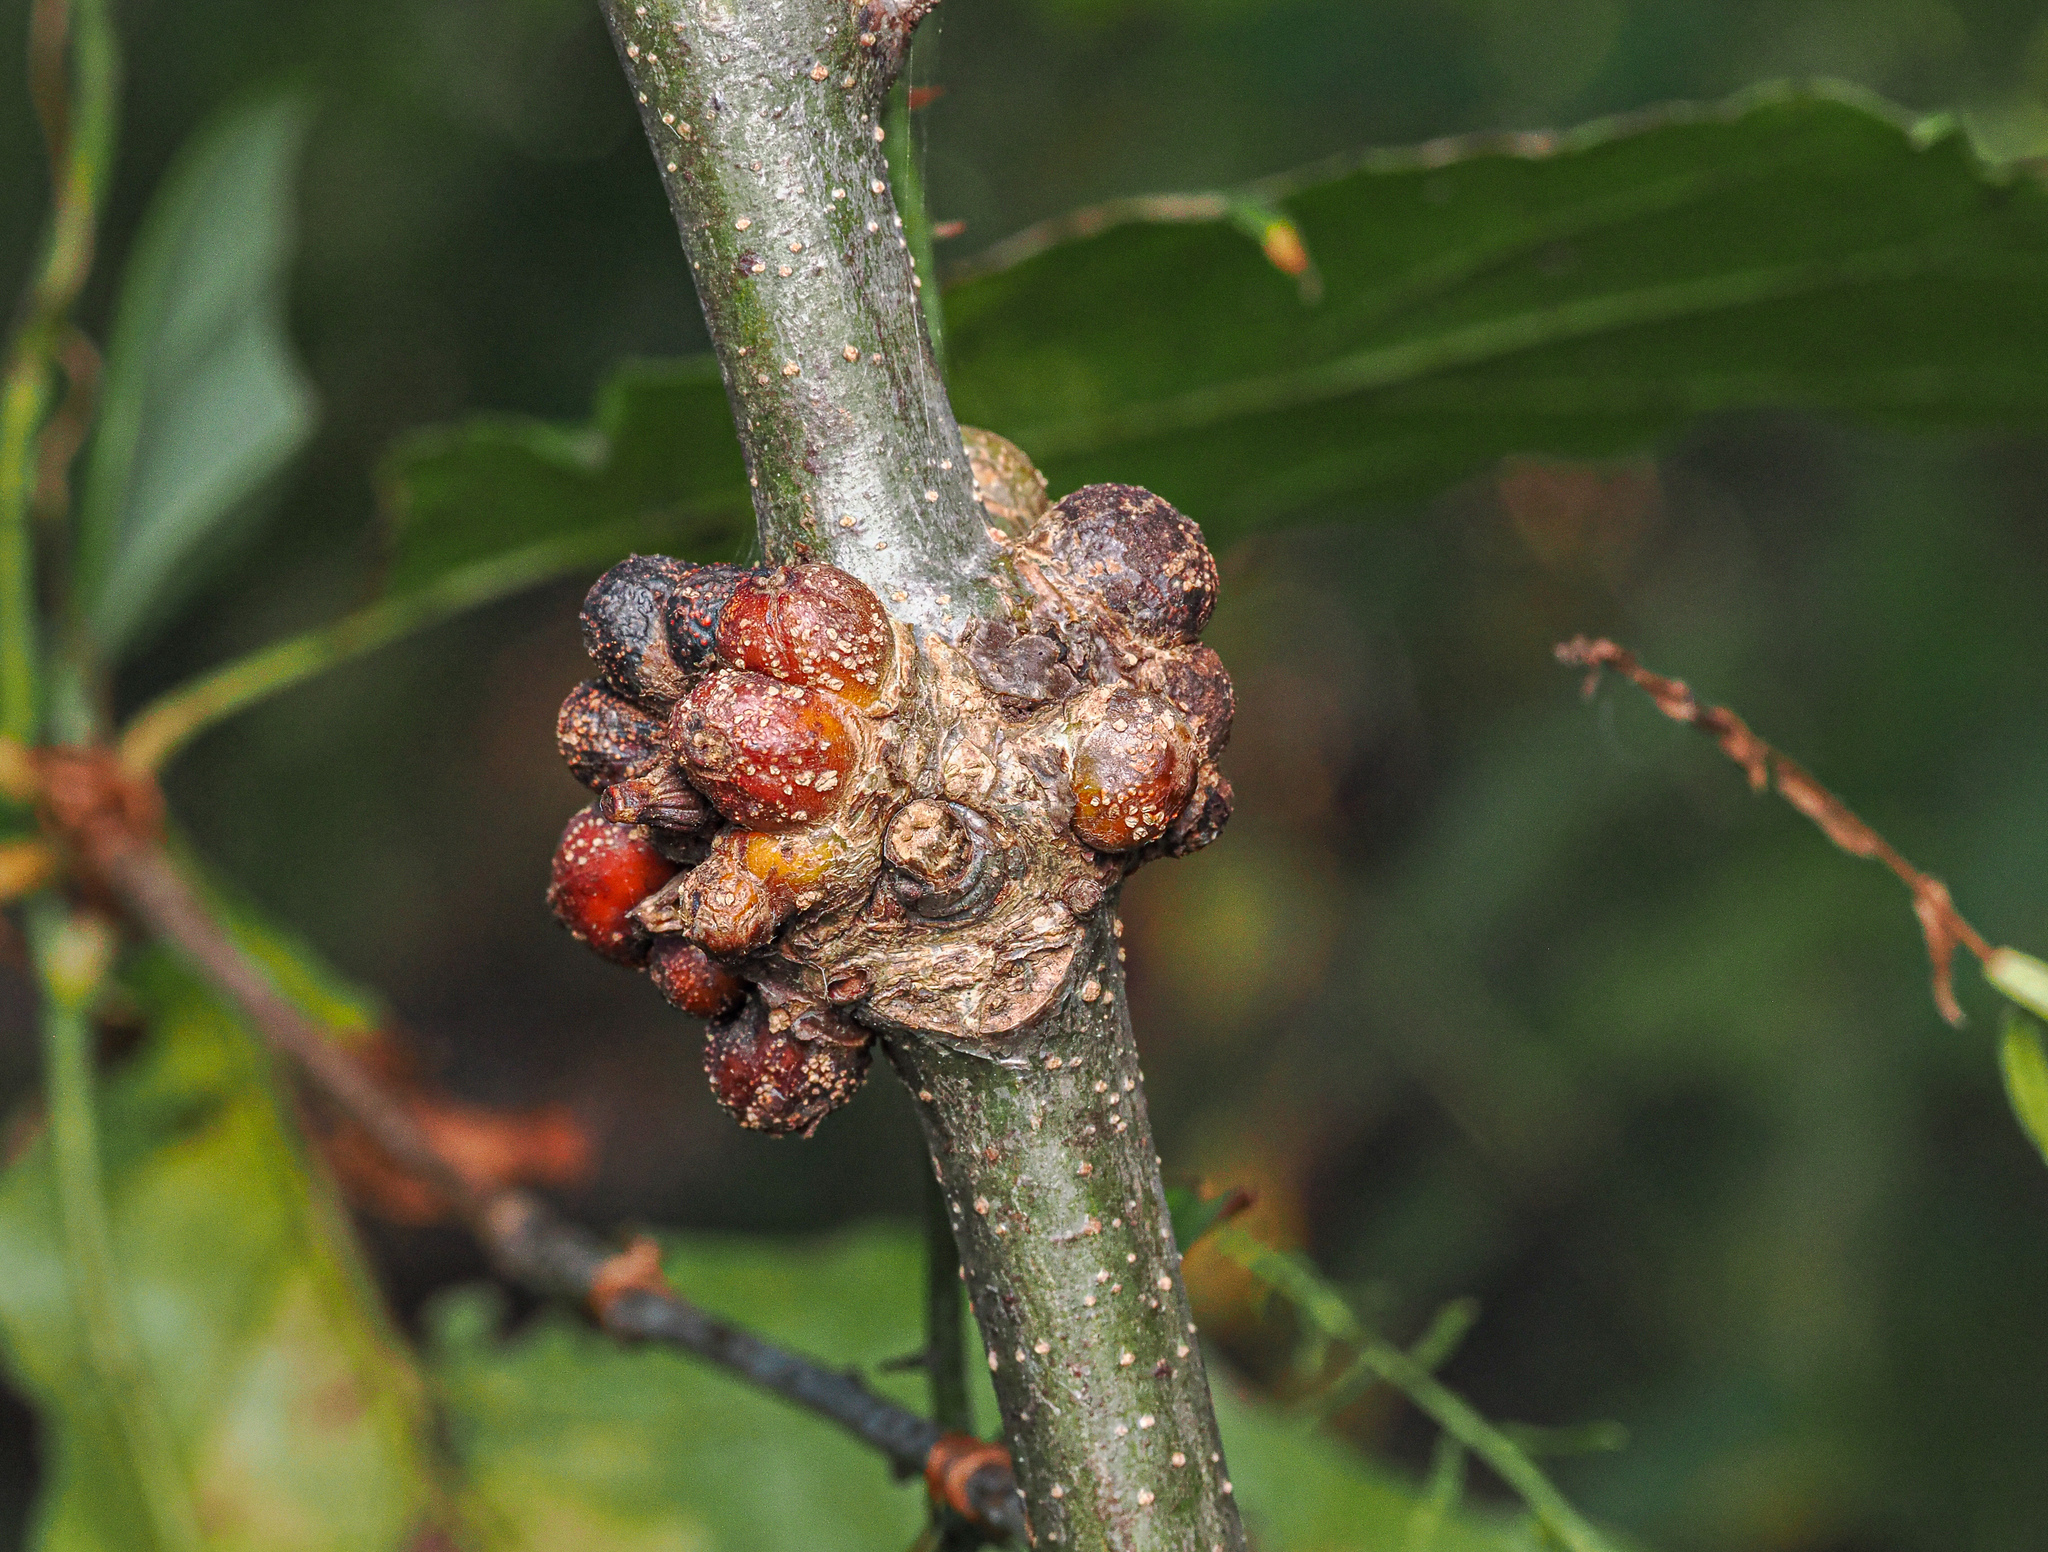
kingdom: Animalia
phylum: Arthropoda
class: Insecta
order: Hymenoptera
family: Cynipidae
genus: Synergus
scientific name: Synergus lignicola
